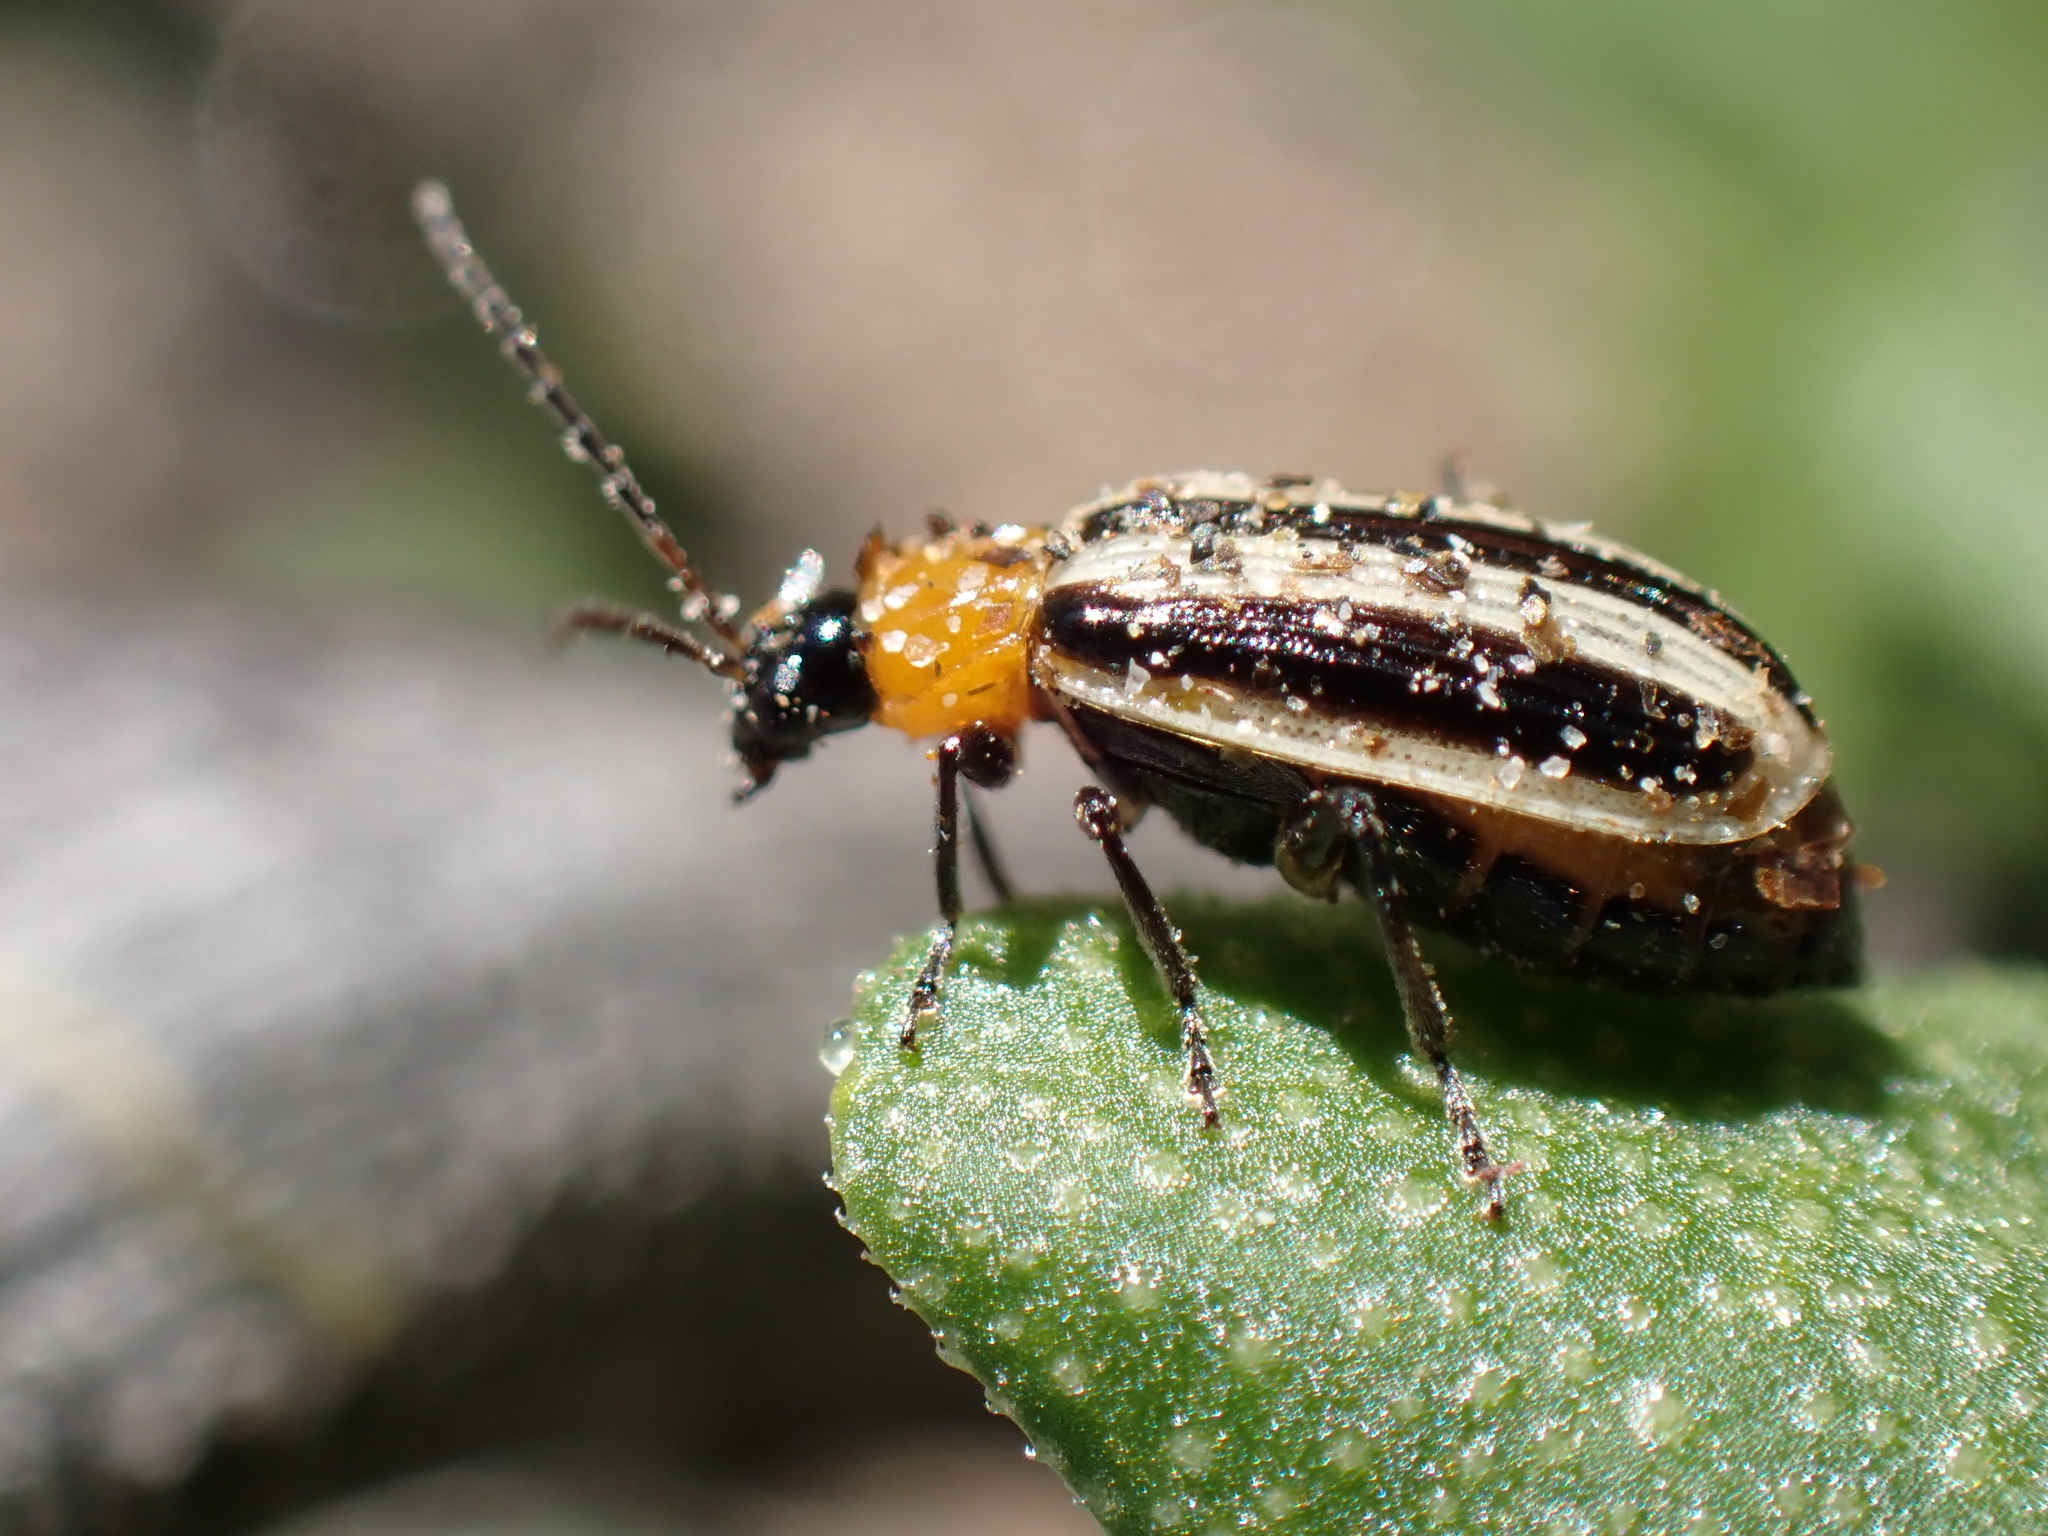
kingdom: Animalia
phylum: Arthropoda
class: Insecta
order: Coleoptera
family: Chrysomelidae
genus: Acalymma
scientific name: Acalymma trivittatum
